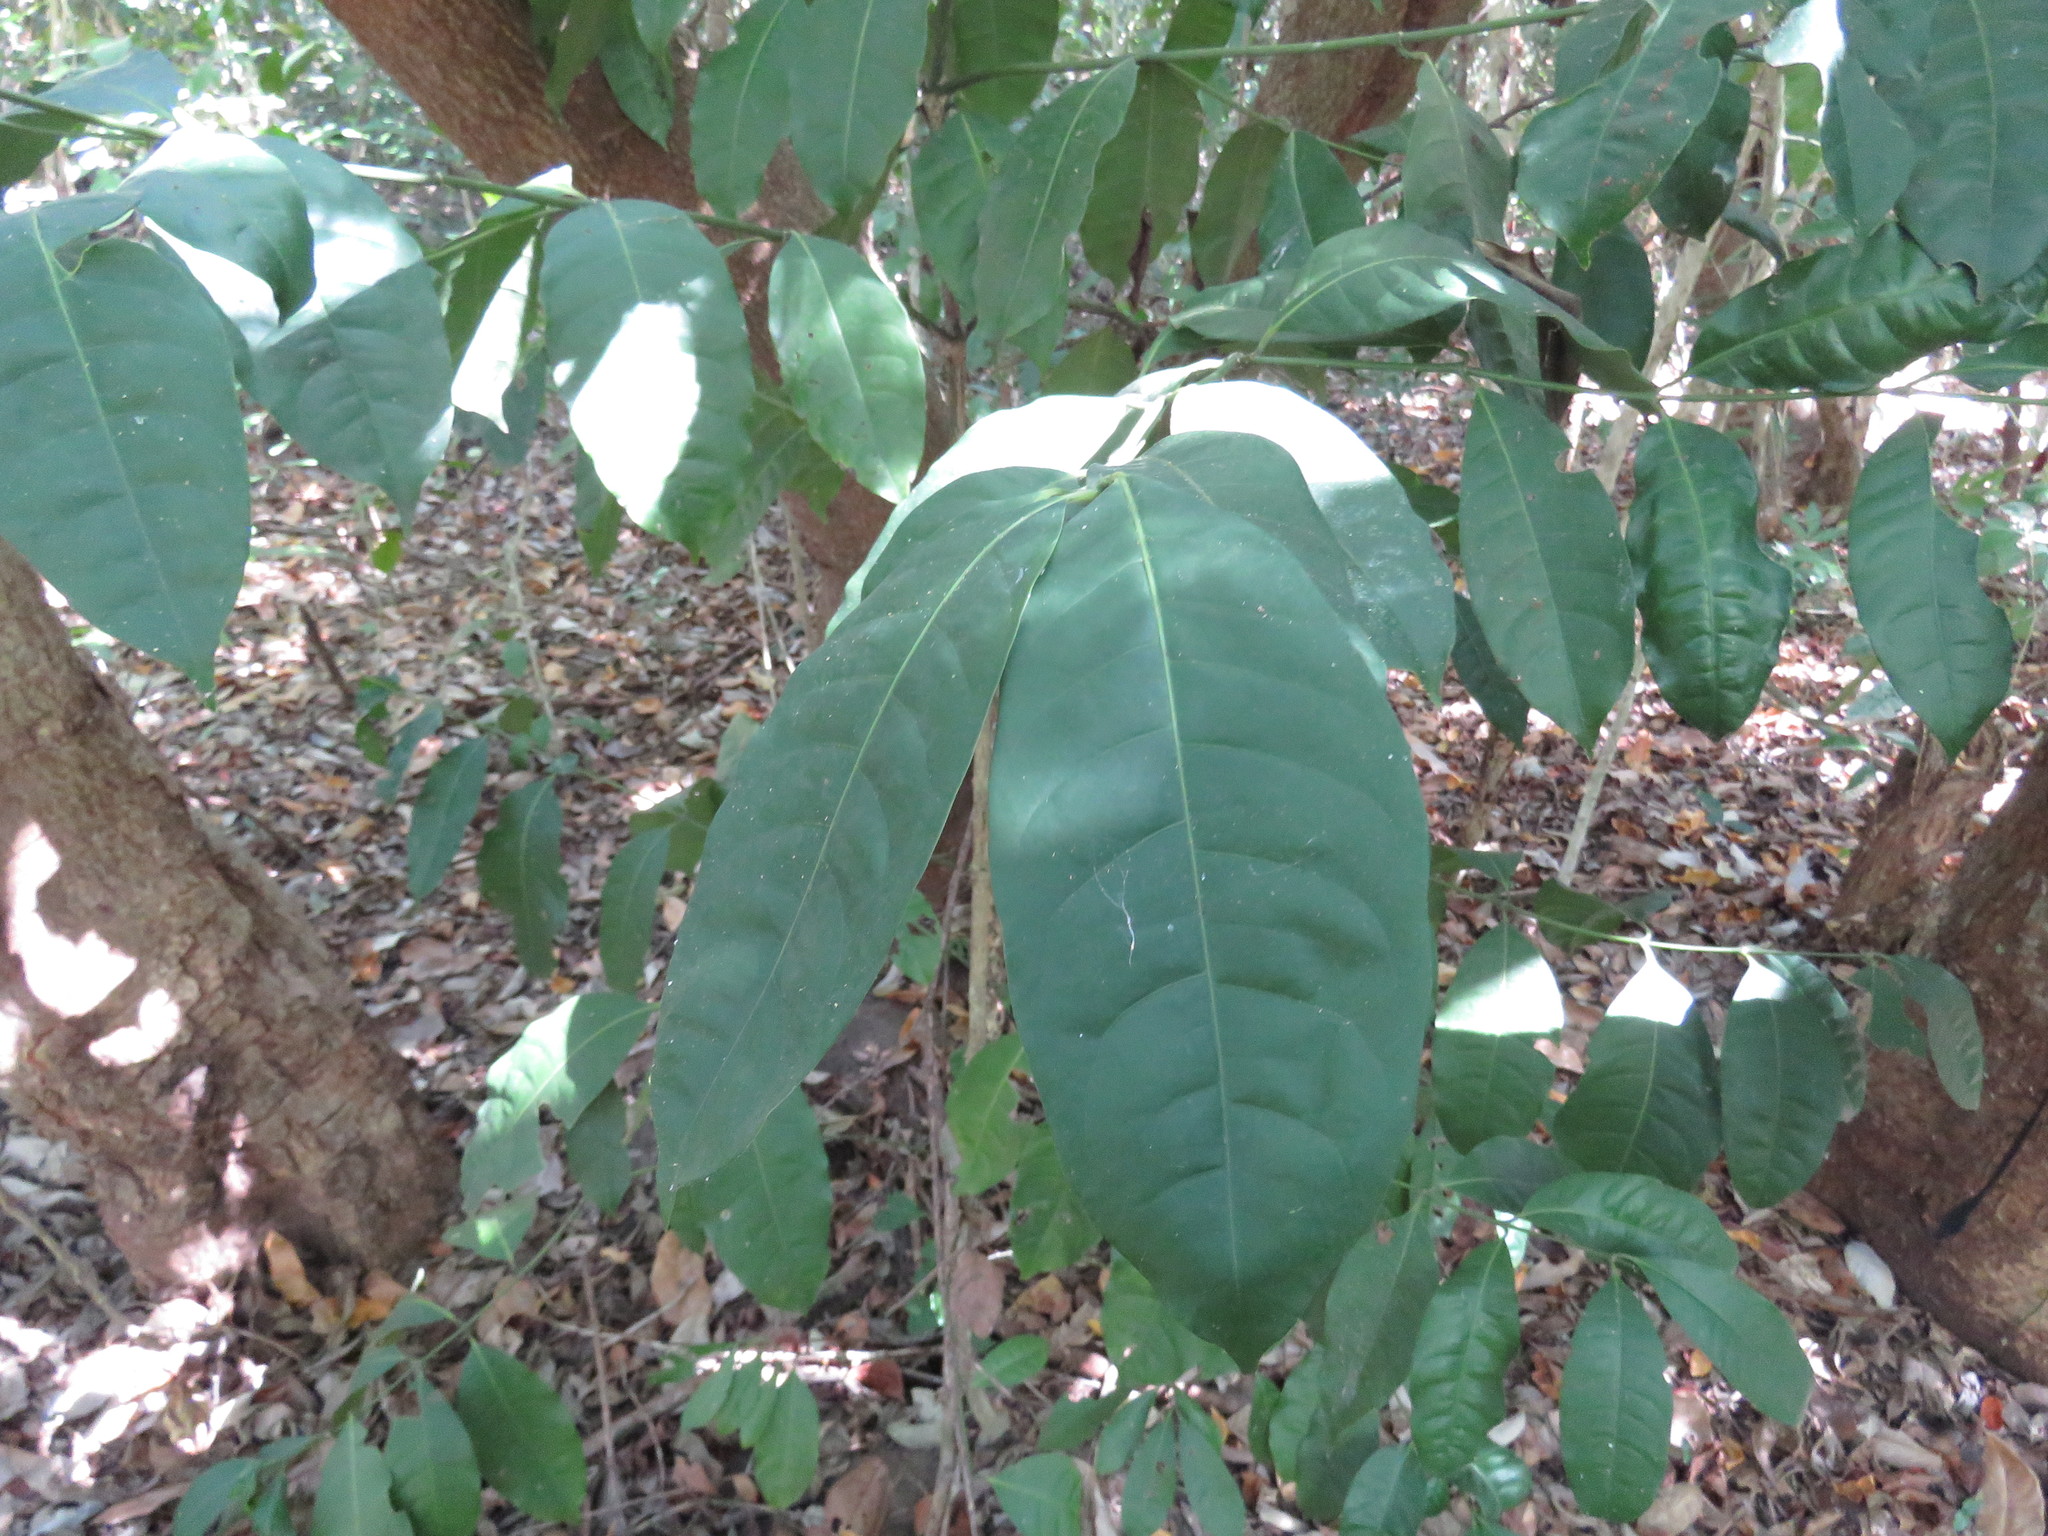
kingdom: Plantae
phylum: Tracheophyta
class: Magnoliopsida
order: Gentianales
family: Rubiaceae
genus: Faramea
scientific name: Faramea occidentalis
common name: False coffee
